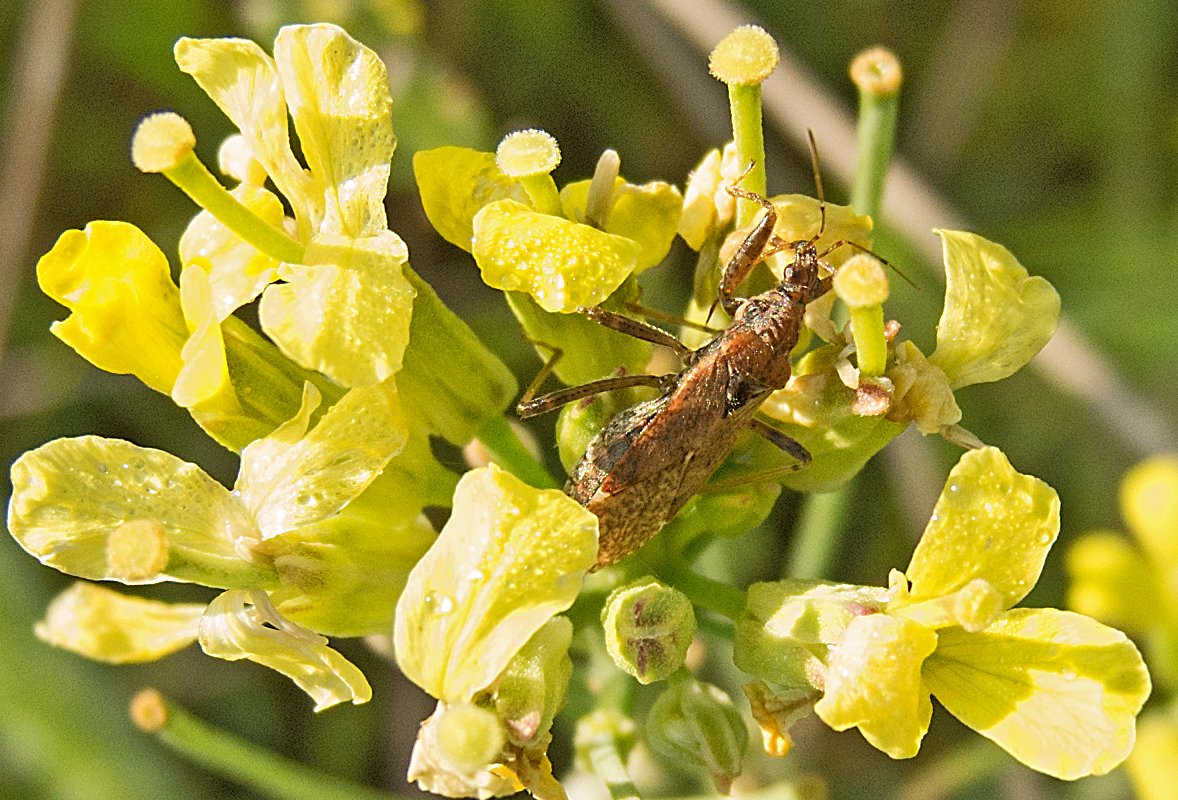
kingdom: Animalia
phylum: Arthropoda
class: Insecta
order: Hemiptera
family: Nabidae
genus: Himacerus
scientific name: Himacerus mirmicoides
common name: Ant damsel bug
